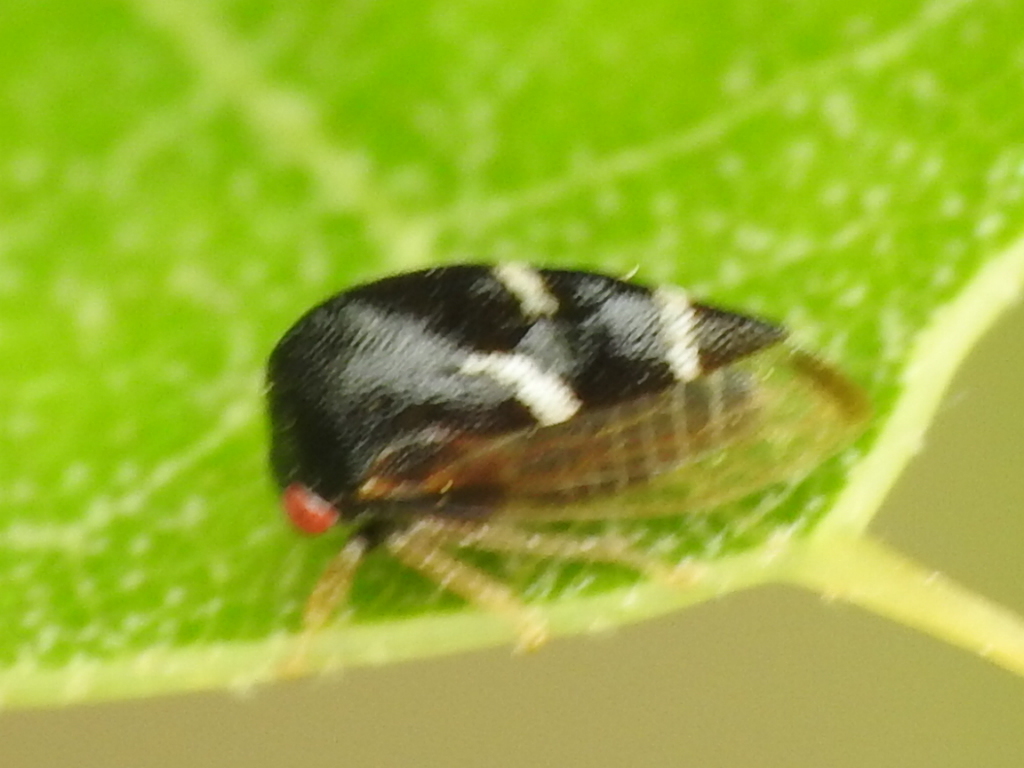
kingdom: Animalia
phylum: Arthropoda
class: Insecta
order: Hemiptera
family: Membracidae
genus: Cyrtolobus
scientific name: Cyrtolobus ovatus
